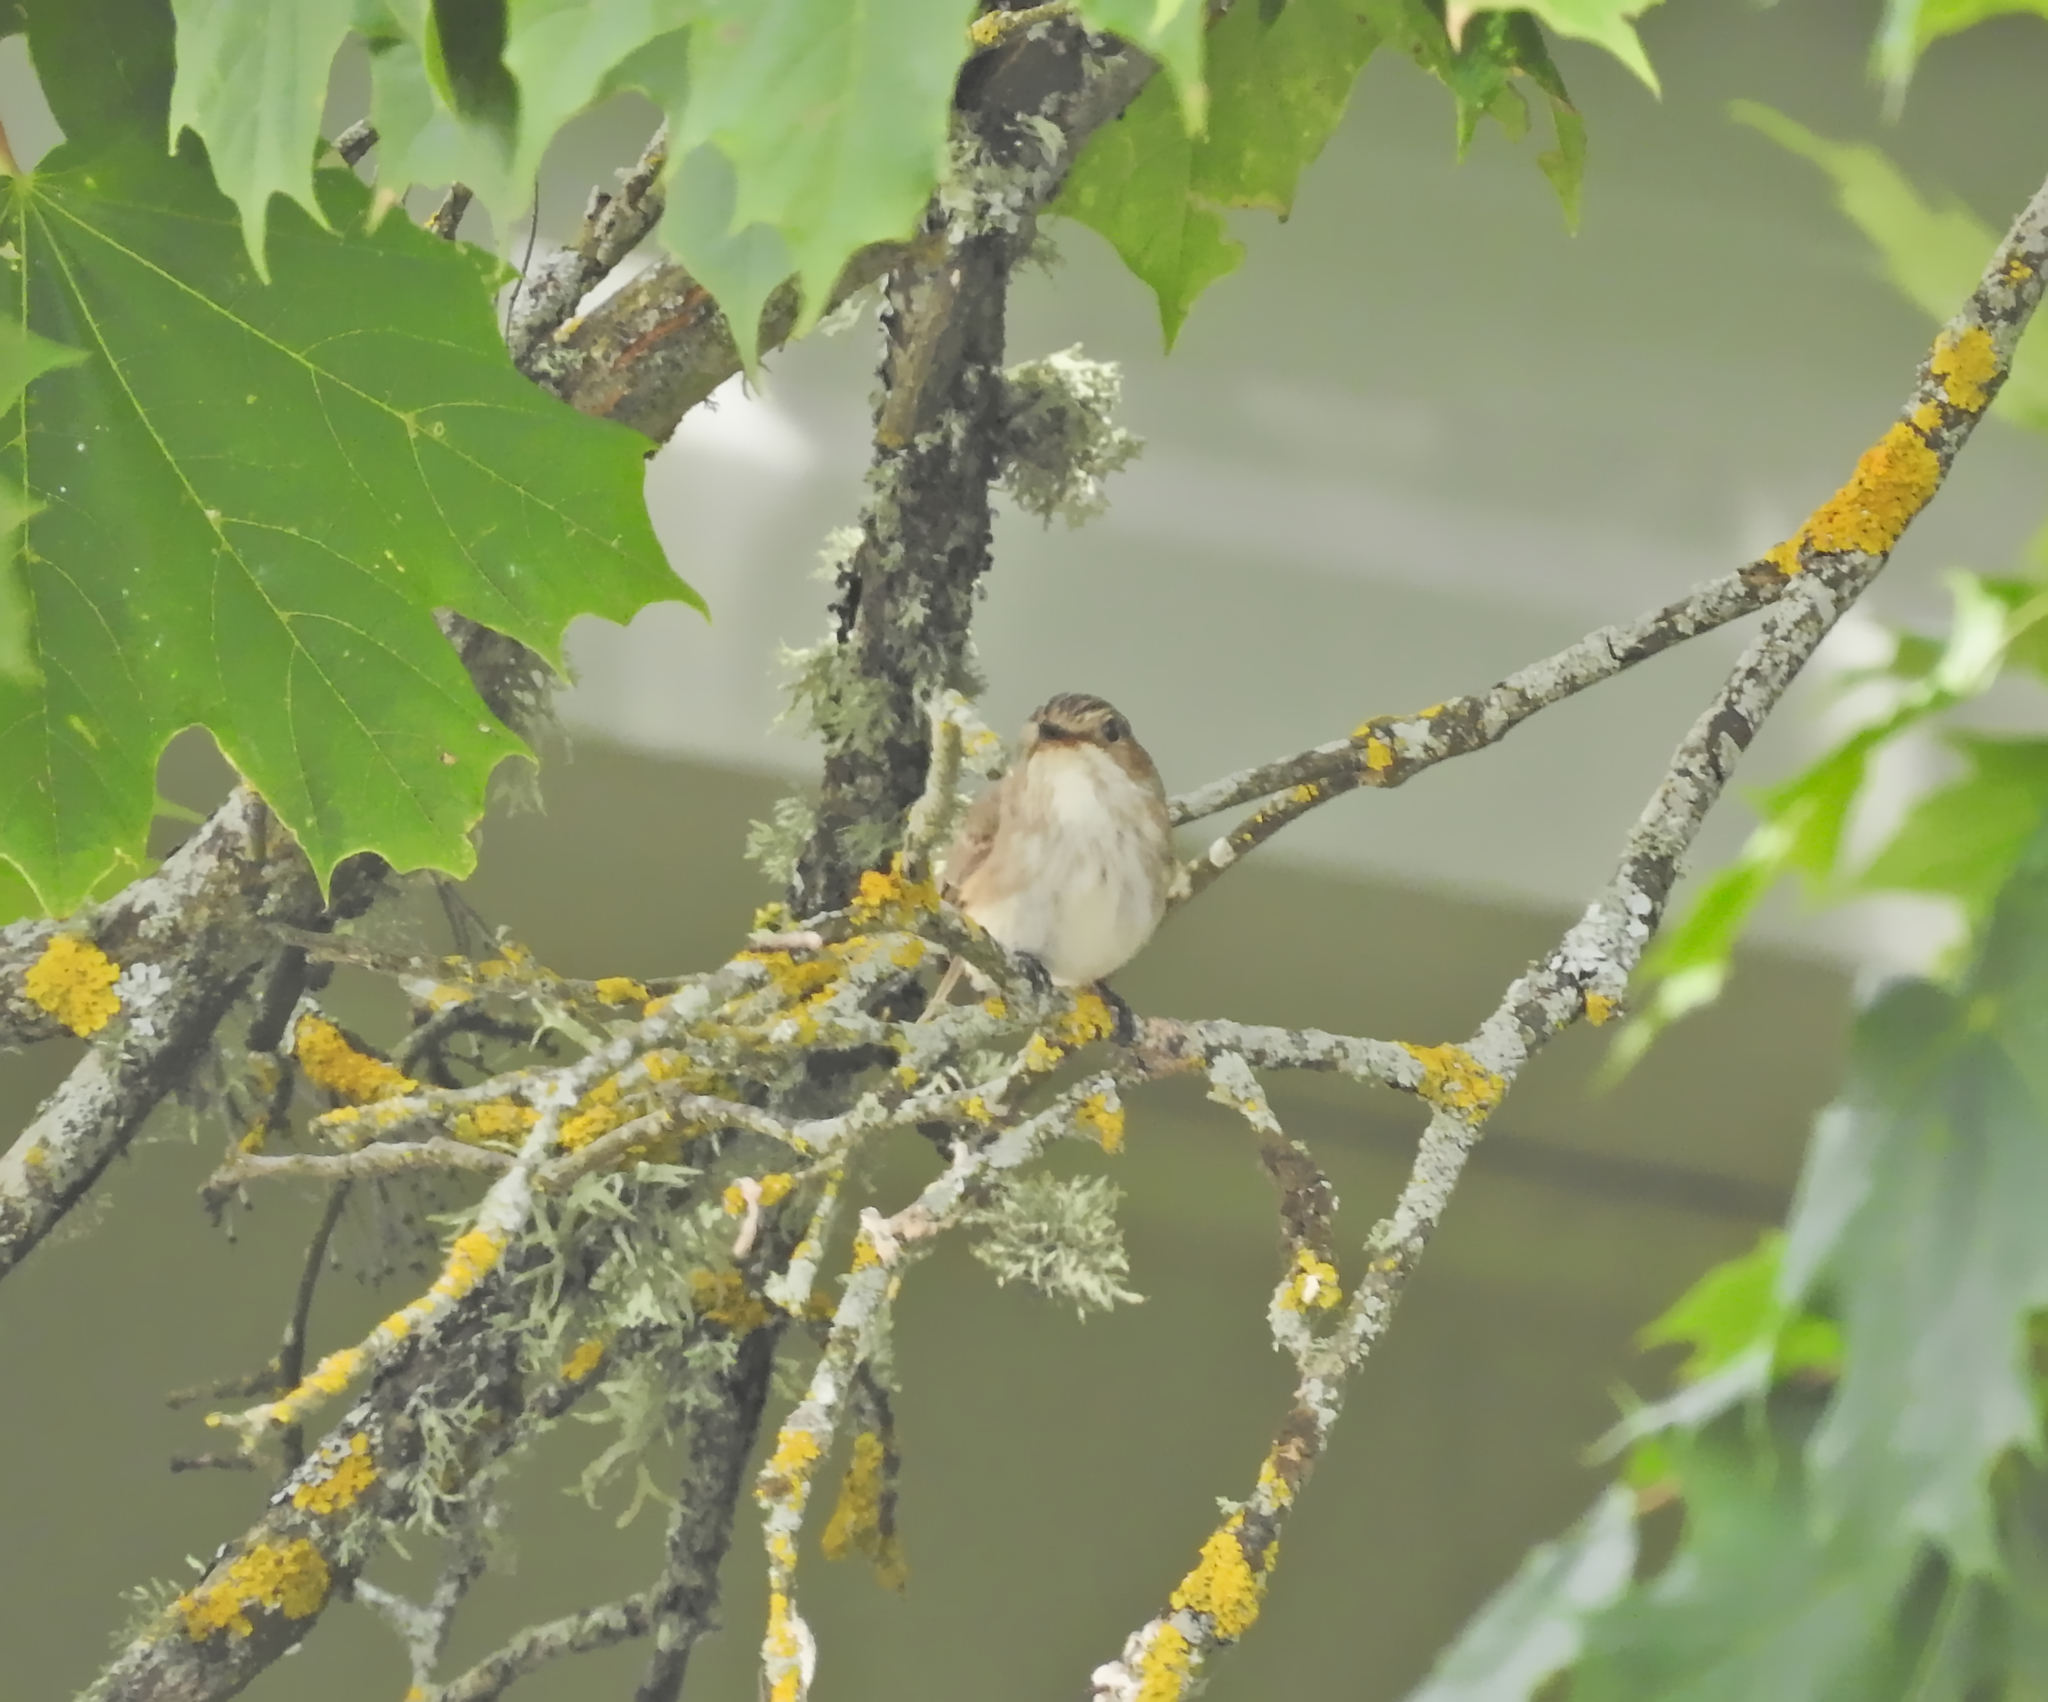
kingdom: Animalia
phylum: Chordata
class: Aves
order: Passeriformes
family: Muscicapidae
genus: Muscicapa
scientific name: Muscicapa striata
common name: Spotted flycatcher
